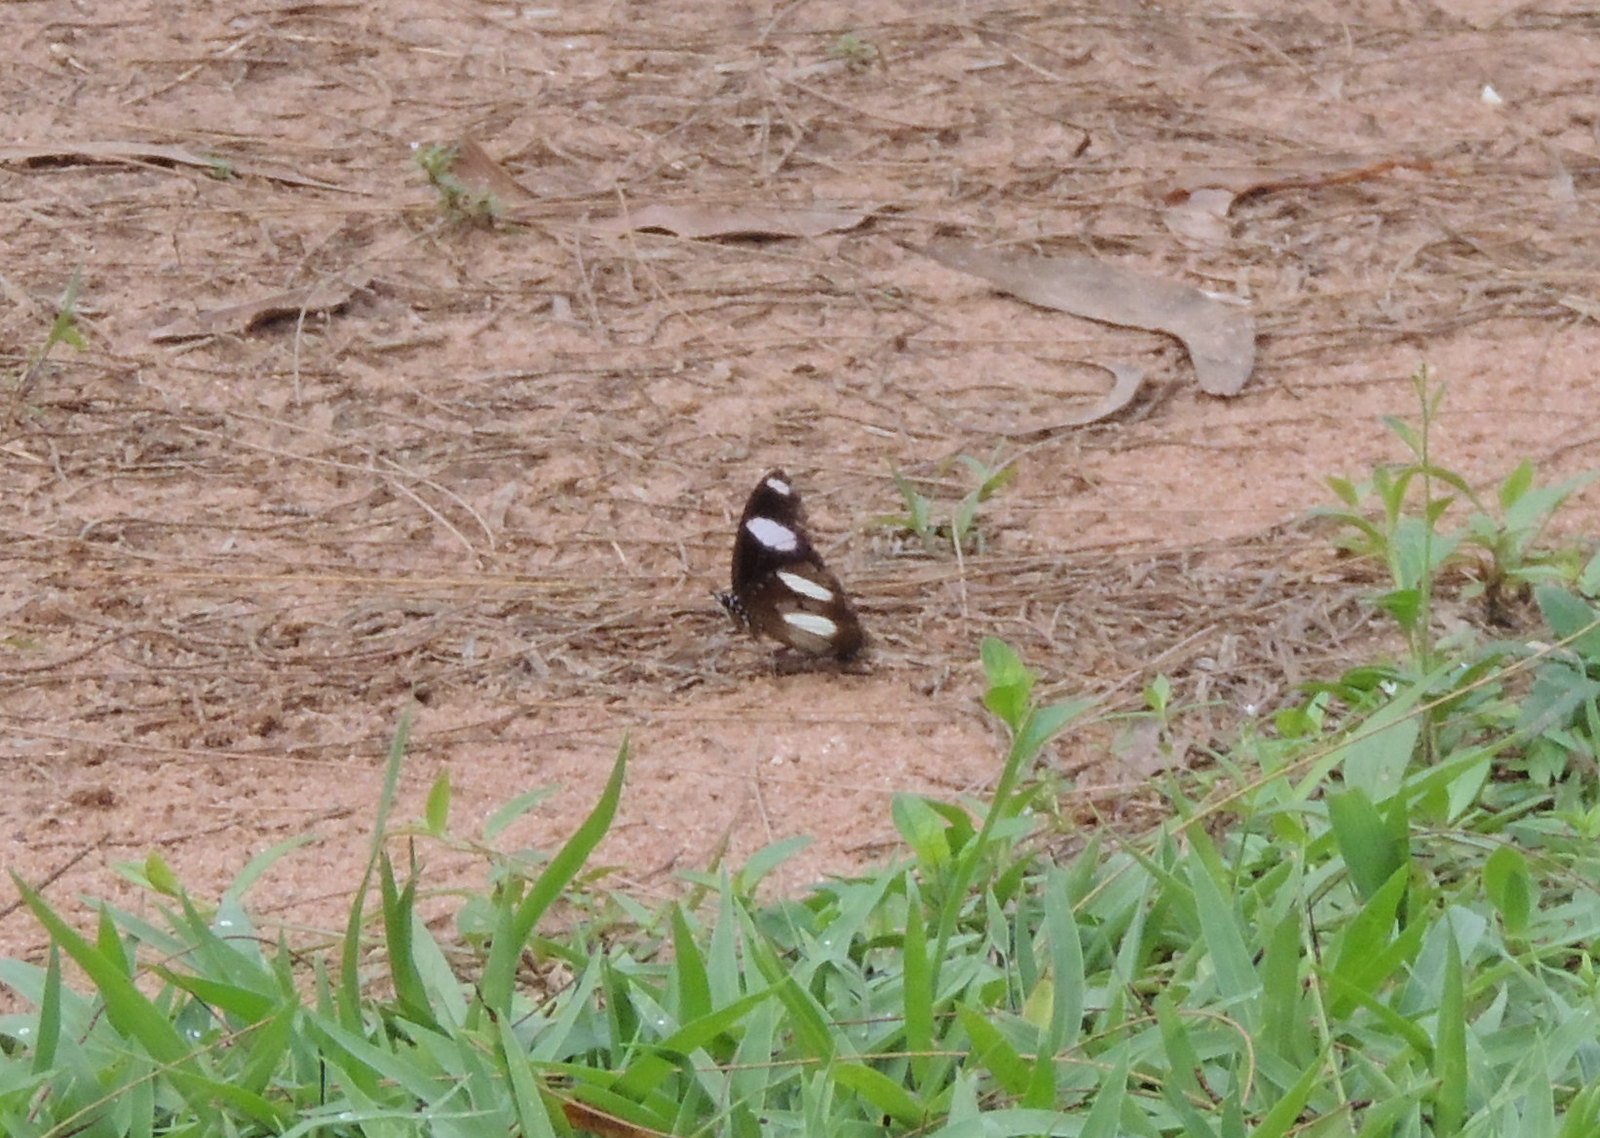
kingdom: Animalia
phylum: Arthropoda
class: Insecta
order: Lepidoptera
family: Nymphalidae
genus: Hypolimnas
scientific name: Hypolimnas misippus
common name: False plain tiger
